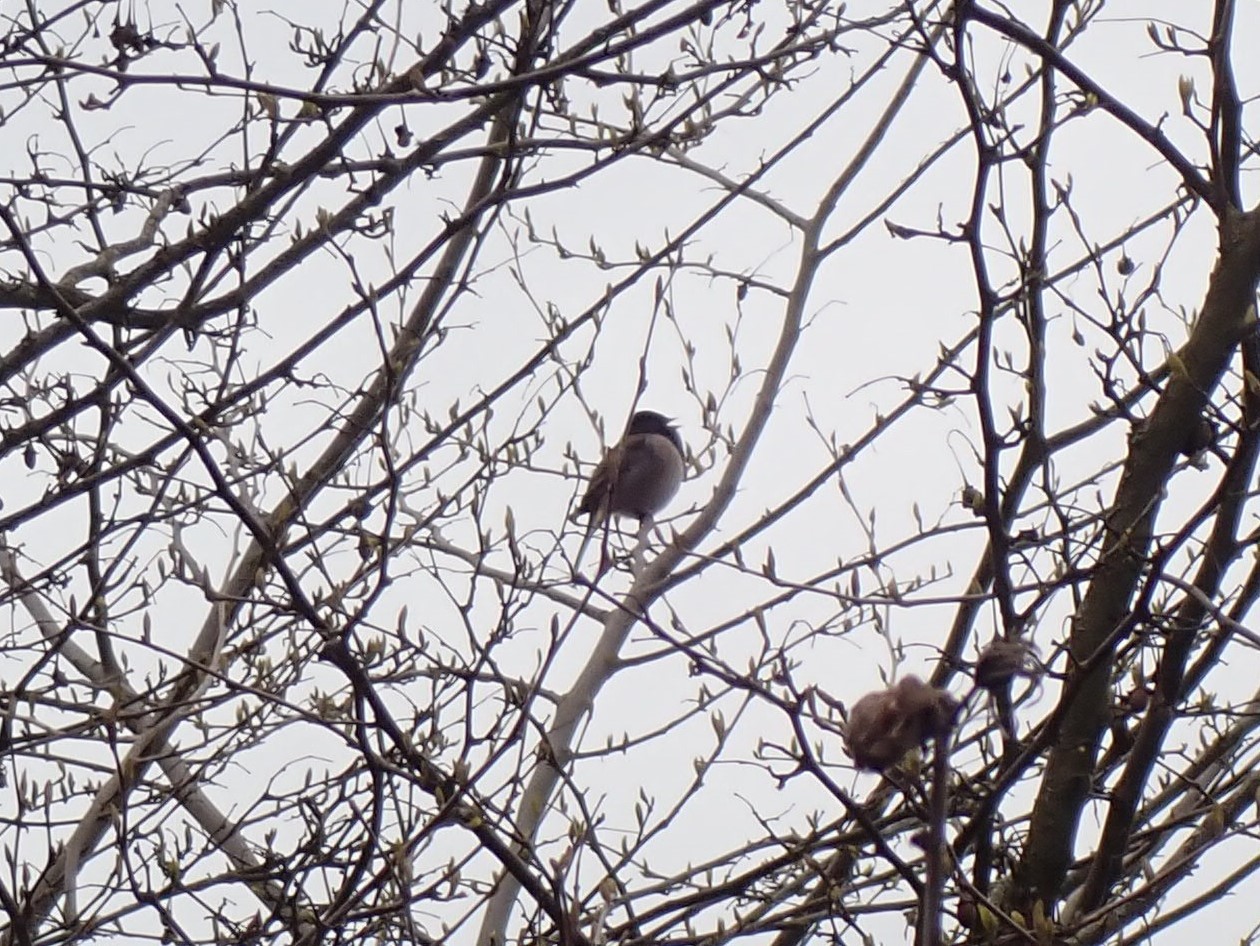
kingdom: Animalia
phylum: Chordata
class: Aves
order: Passeriformes
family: Passerellidae
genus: Junco
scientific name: Junco hyemalis
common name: Dark-eyed junco
